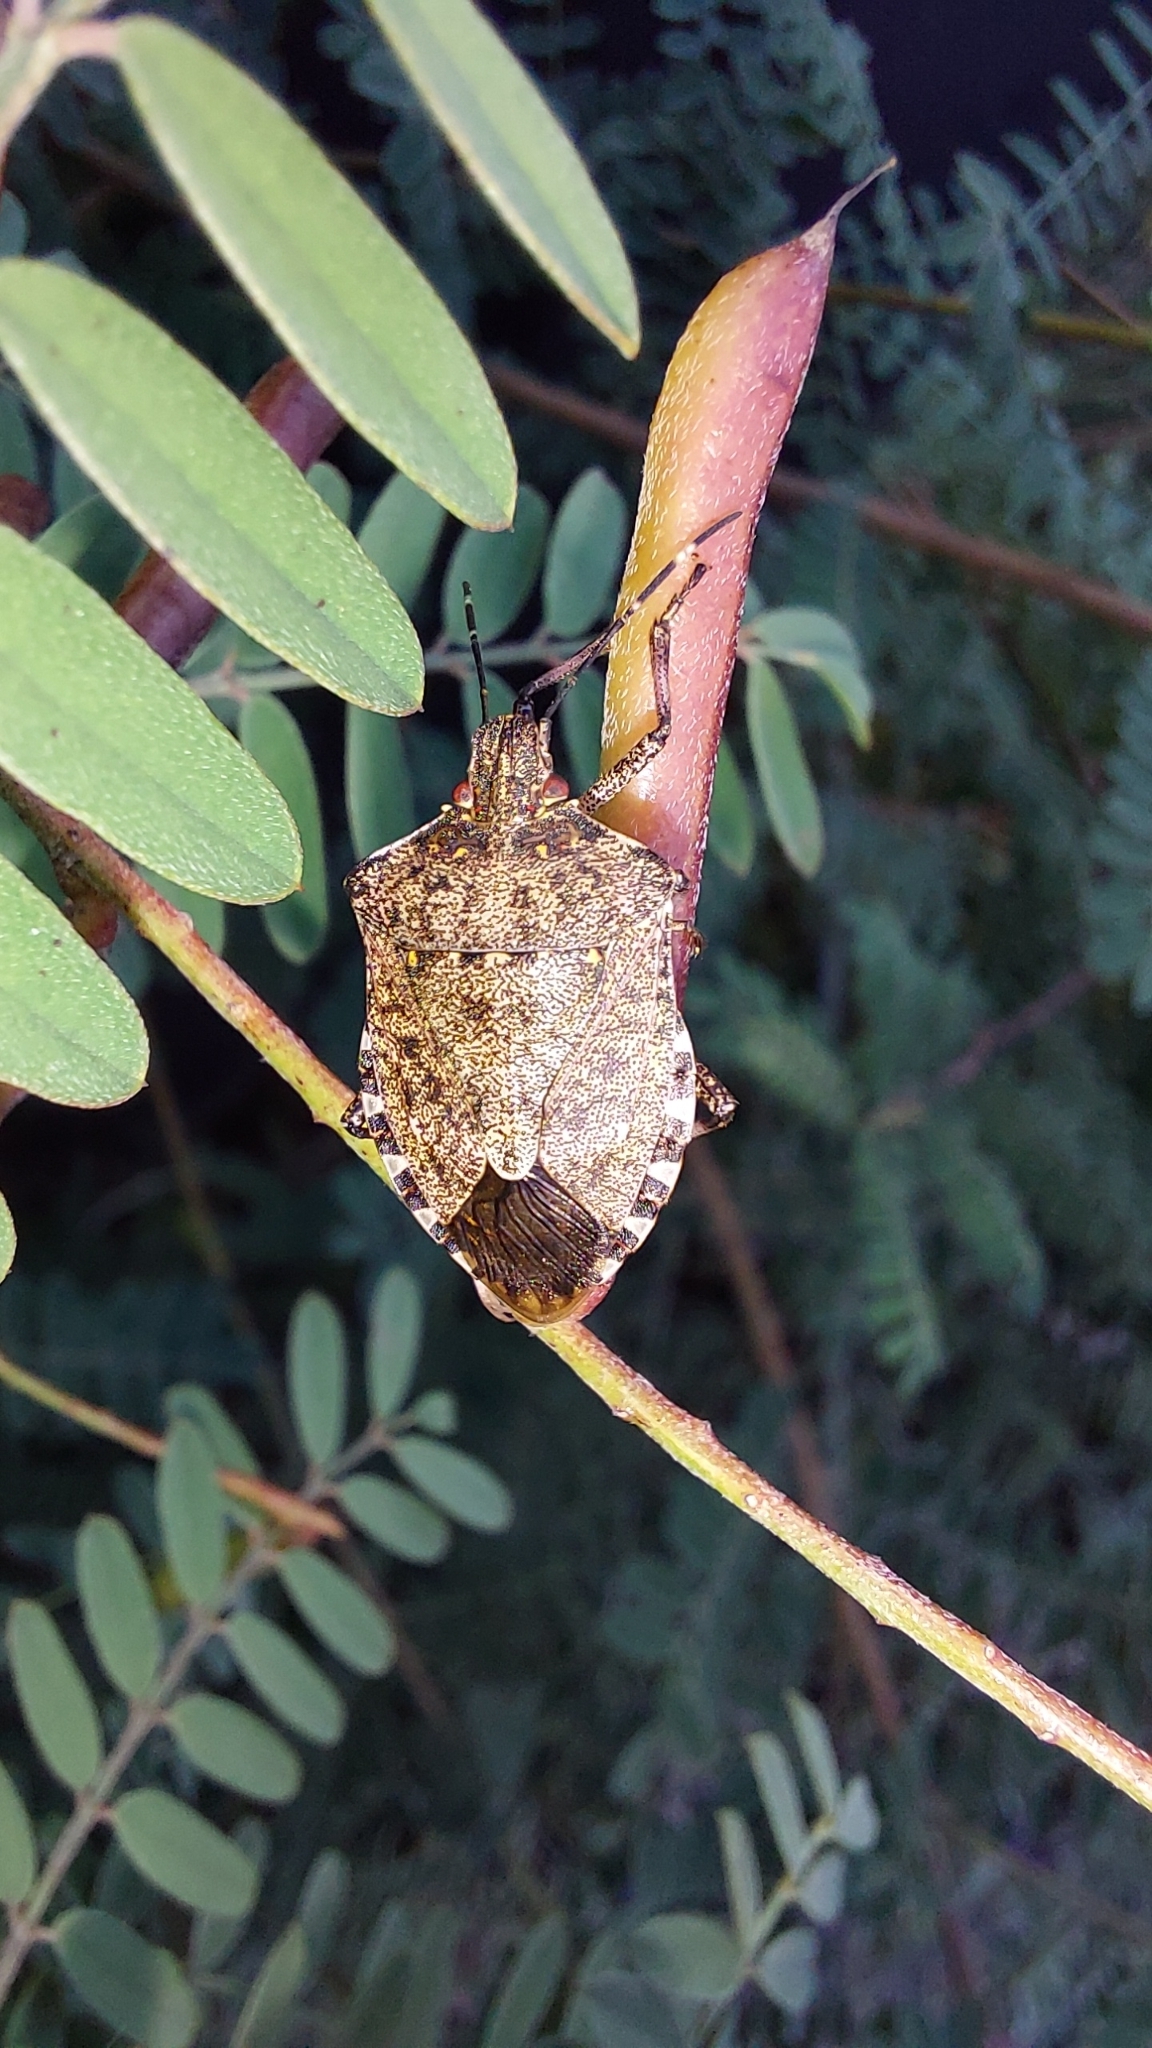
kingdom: Animalia
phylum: Arthropoda
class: Insecta
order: Hemiptera
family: Pentatomidae
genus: Halyomorpha
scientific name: Halyomorpha halys
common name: Brown marmorated stink bug
